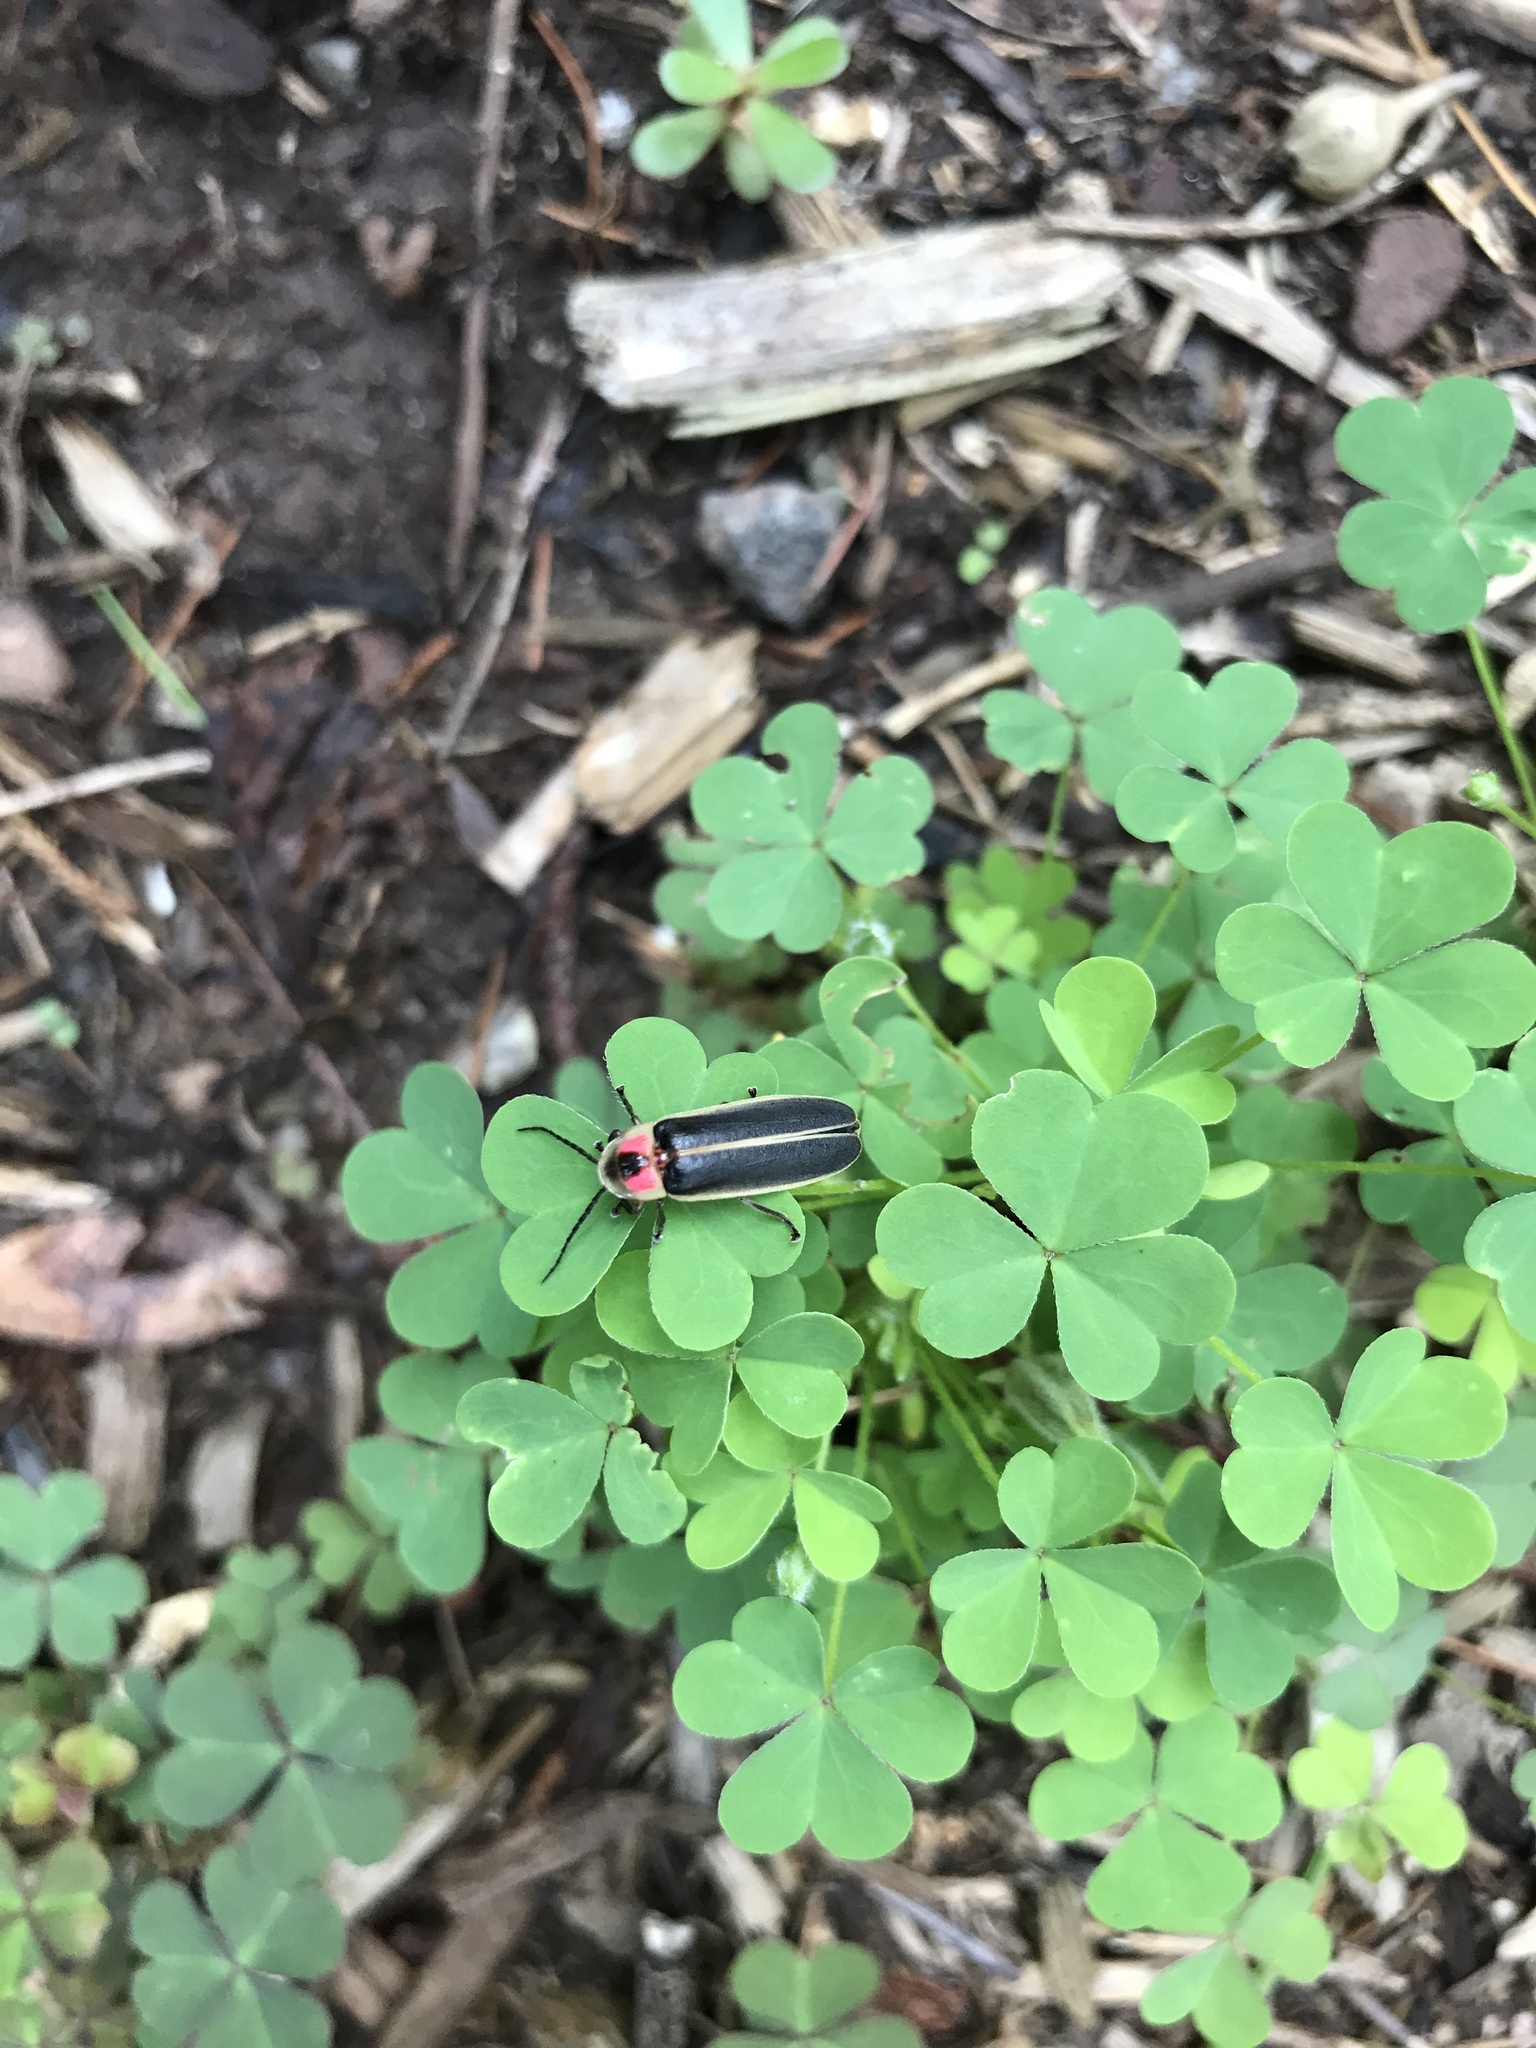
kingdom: Animalia
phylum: Arthropoda
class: Insecta
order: Coleoptera
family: Lampyridae
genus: Photinus
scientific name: Photinus pyralis
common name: Big dipper firefly
